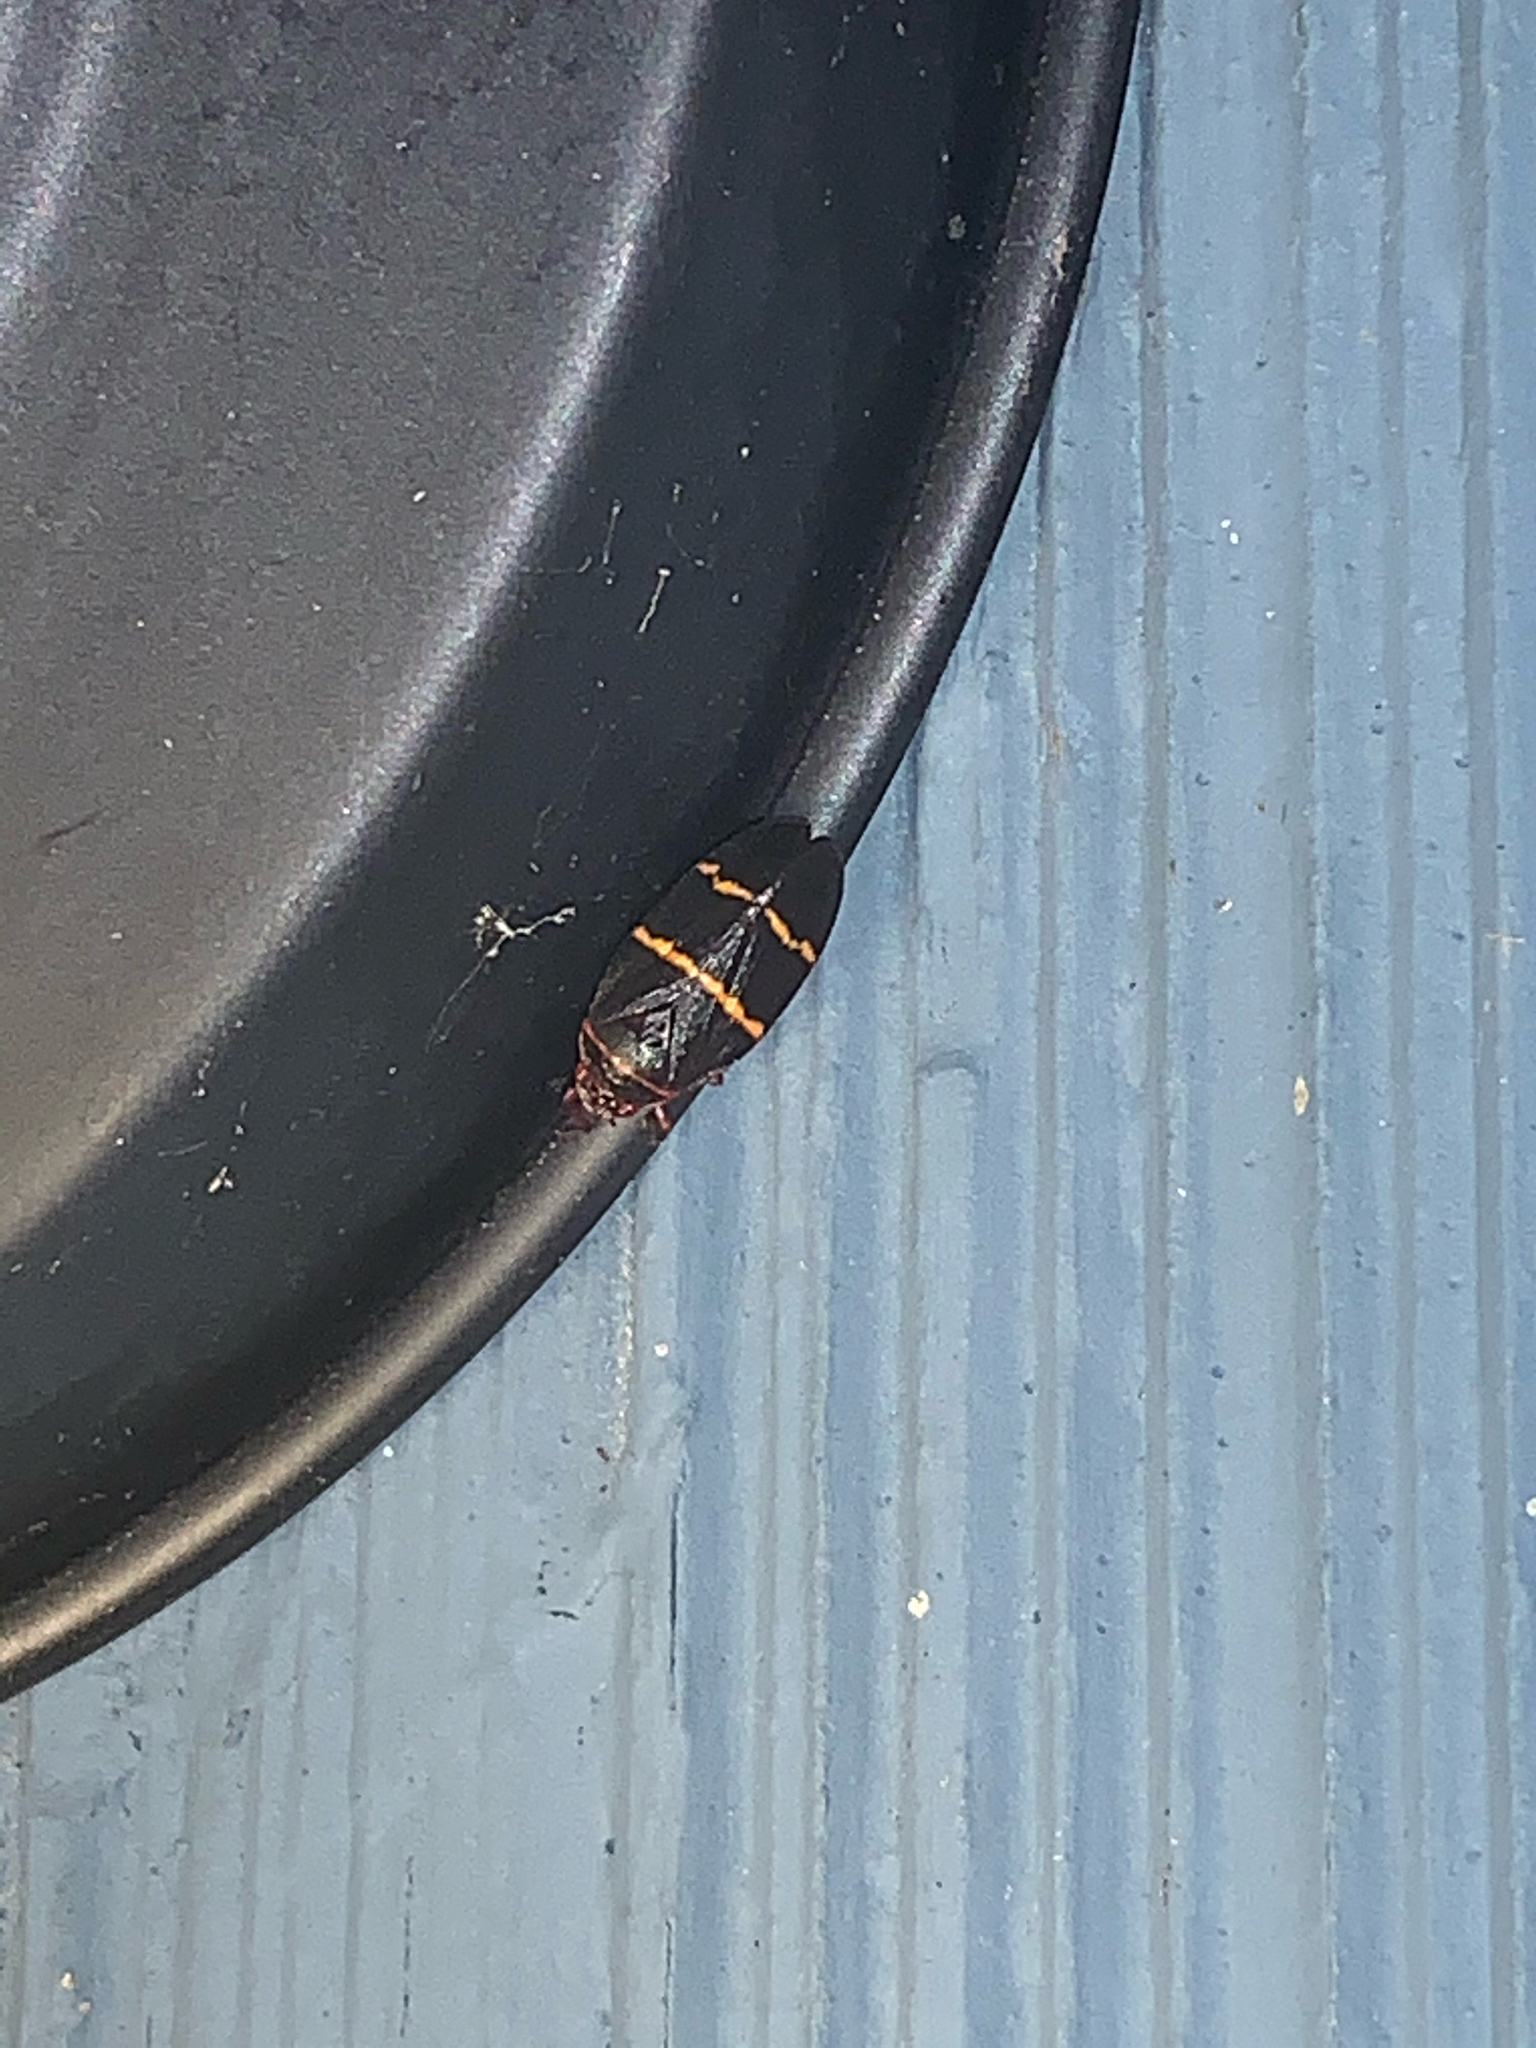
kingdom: Animalia
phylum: Arthropoda
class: Insecta
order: Hemiptera
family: Cercopidae
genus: Prosapia
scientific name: Prosapia bicincta
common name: Twolined spittlebug
